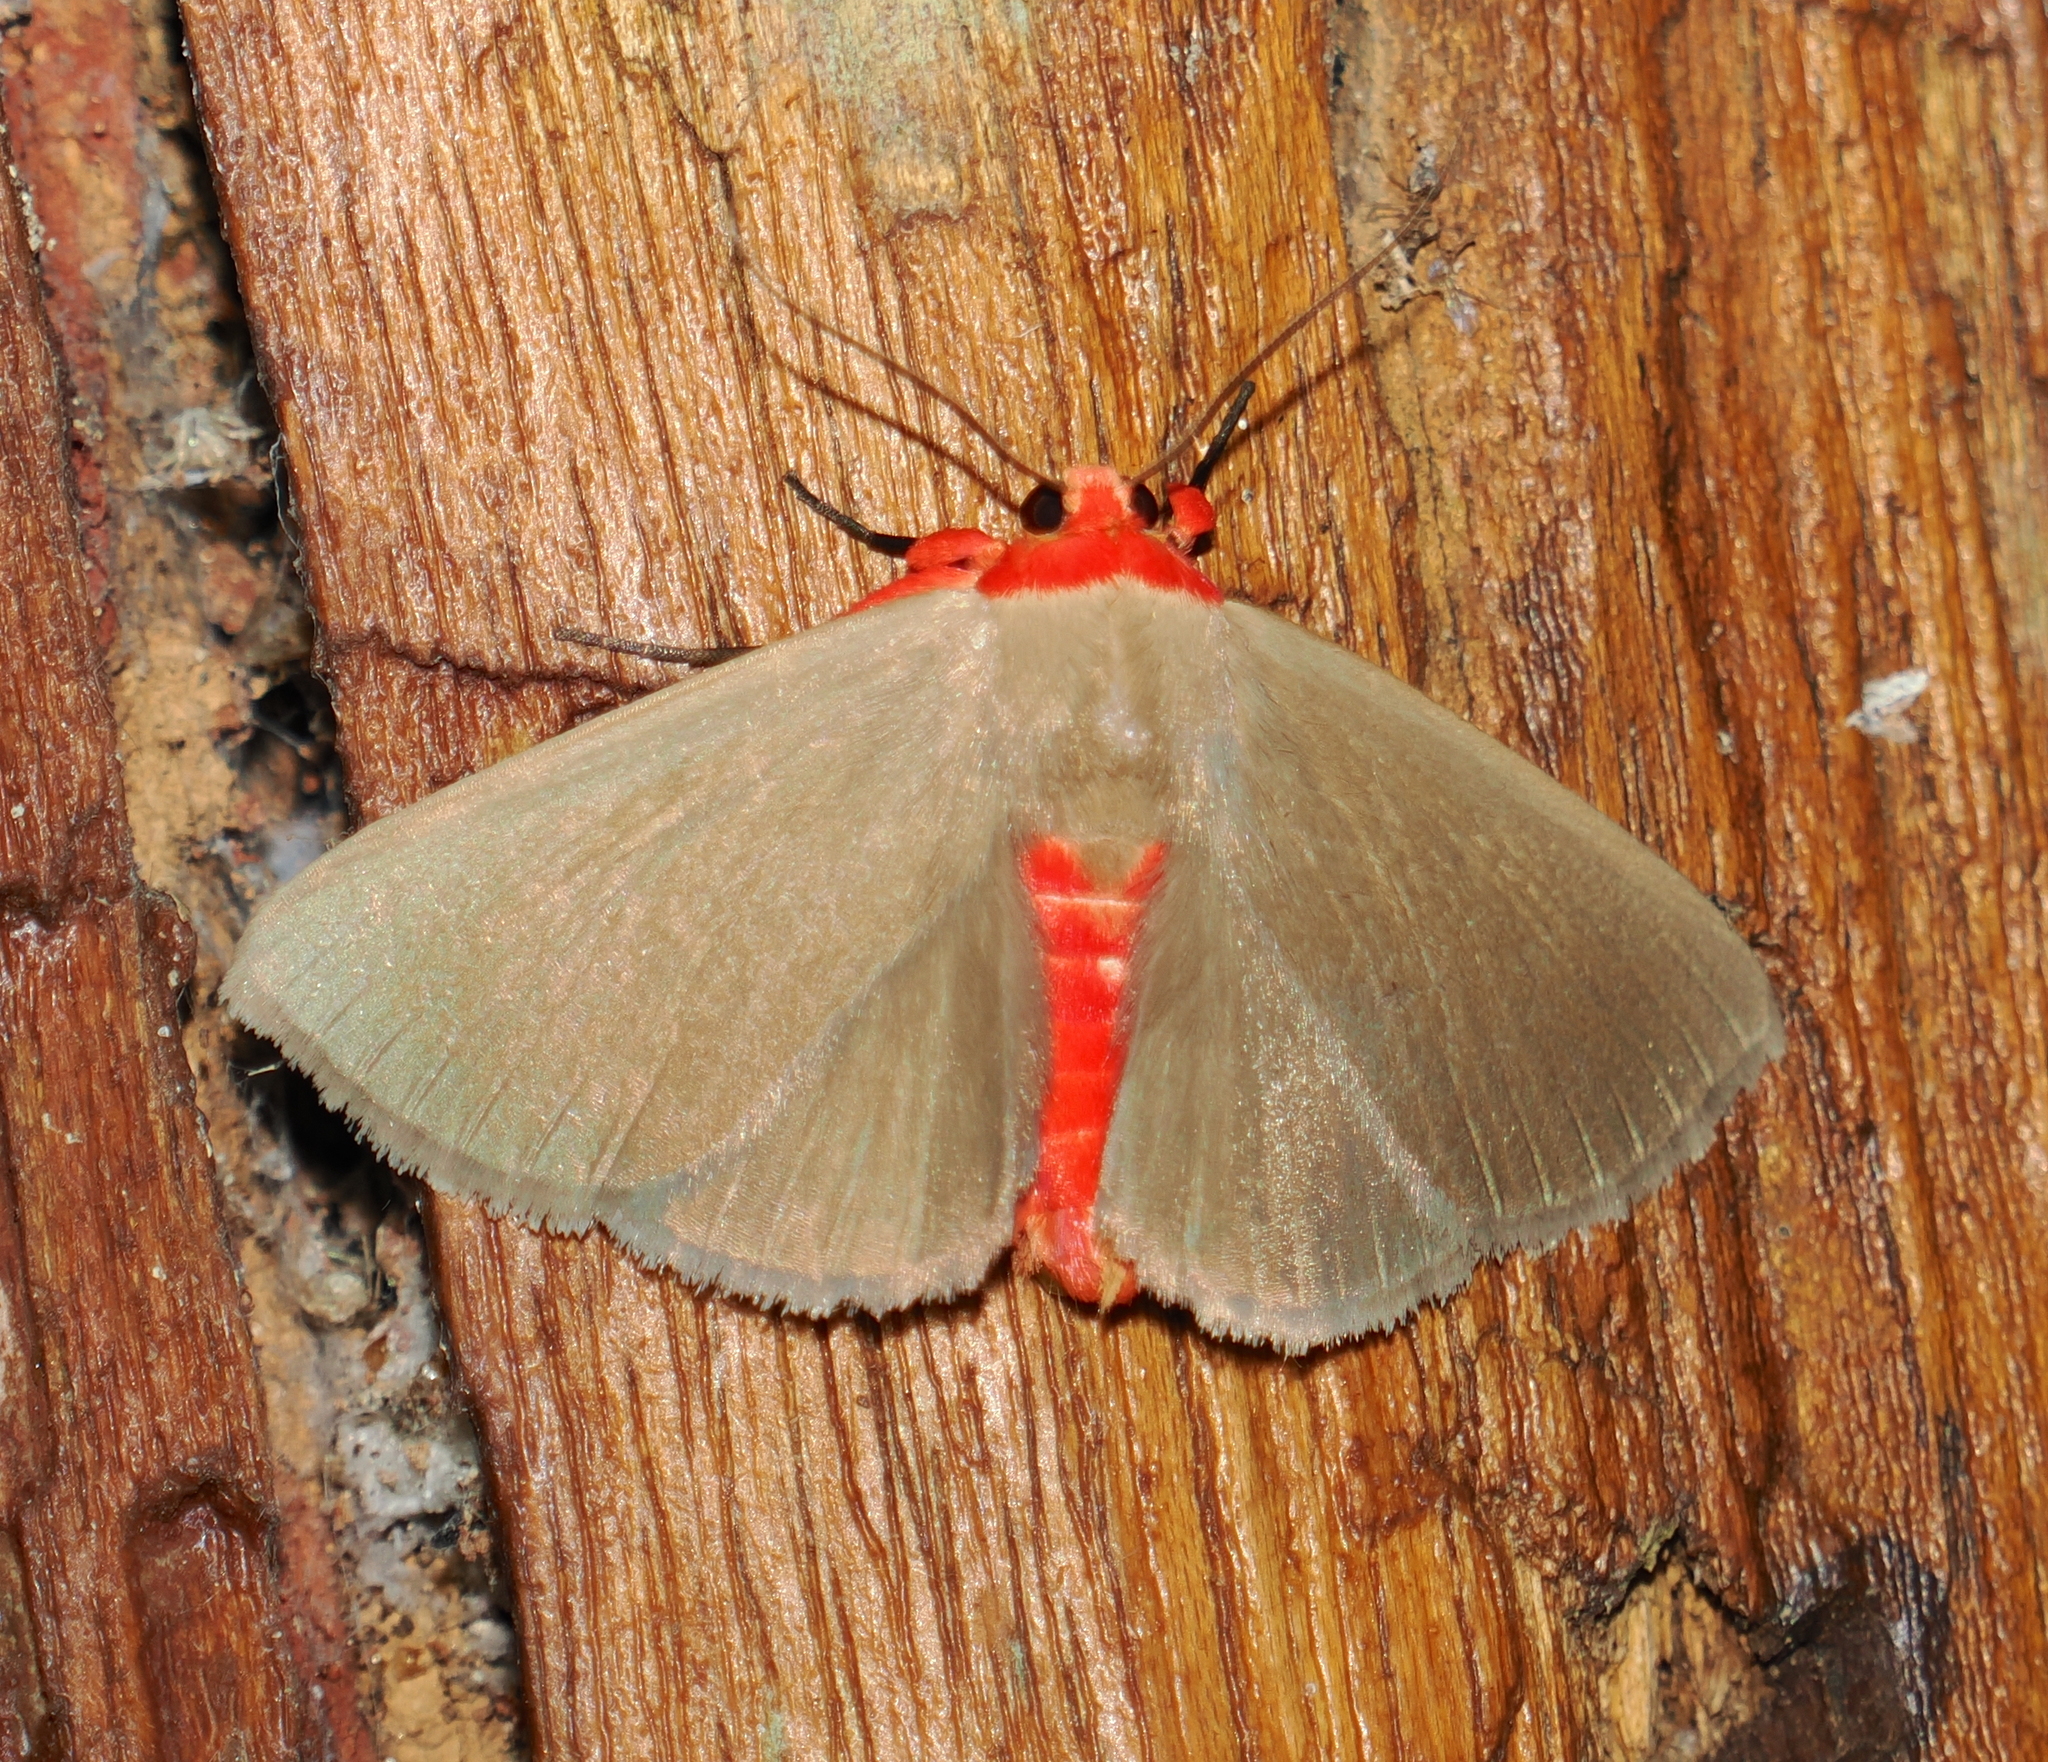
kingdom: Animalia
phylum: Arthropoda
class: Insecta
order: Lepidoptera
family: Erebidae
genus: Calesia
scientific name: Calesia rhodotela
